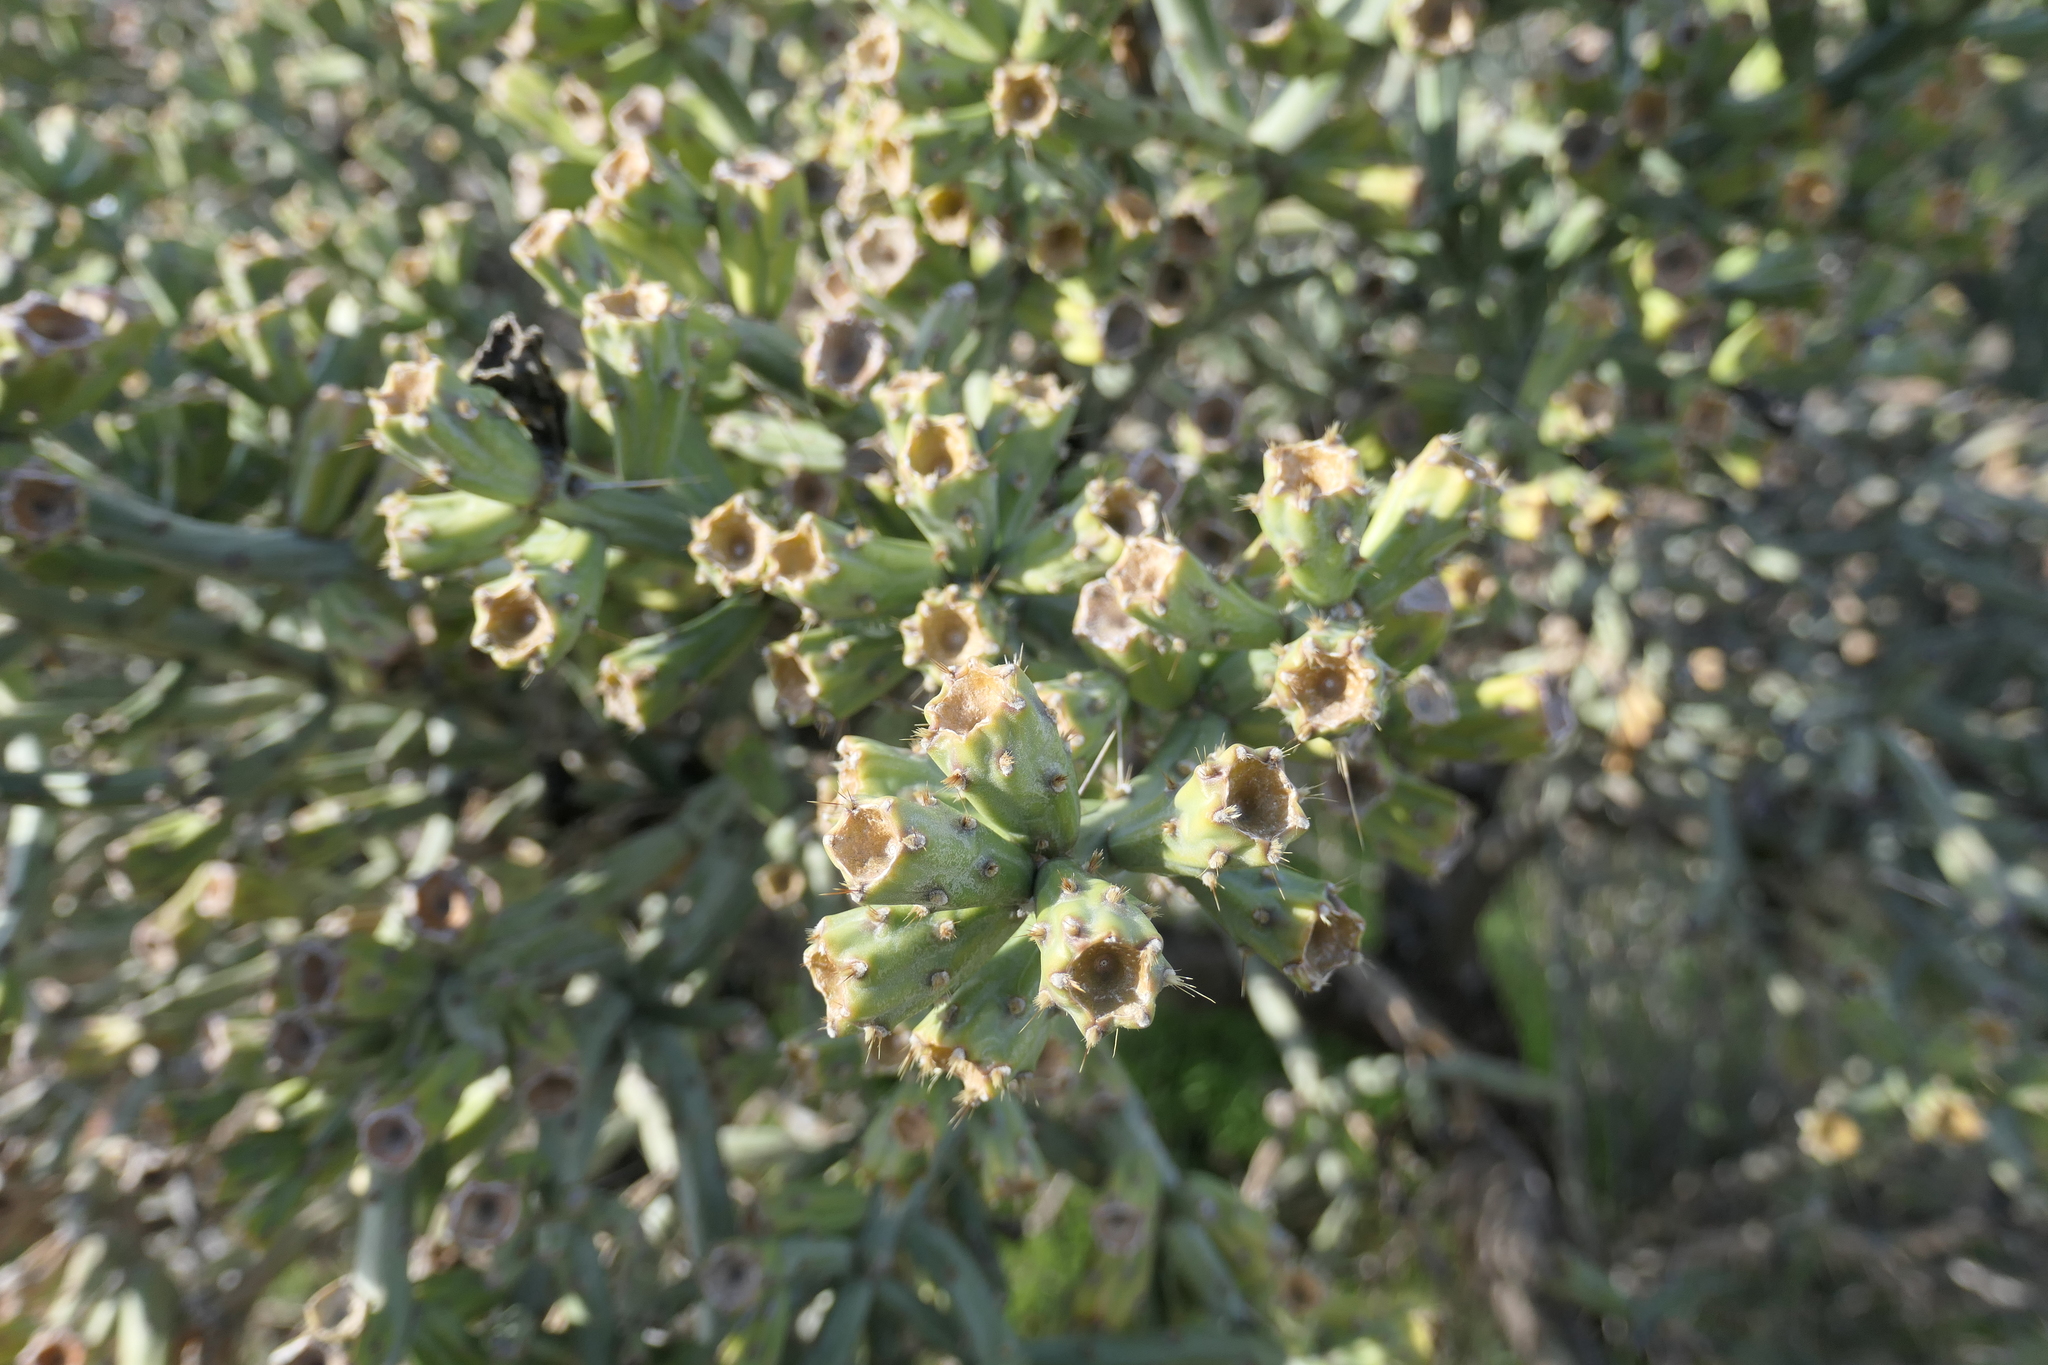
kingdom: Plantae
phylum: Tracheophyta
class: Magnoliopsida
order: Caryophyllales
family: Cactaceae
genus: Cylindropuntia
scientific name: Cylindropuntia arbuscula
